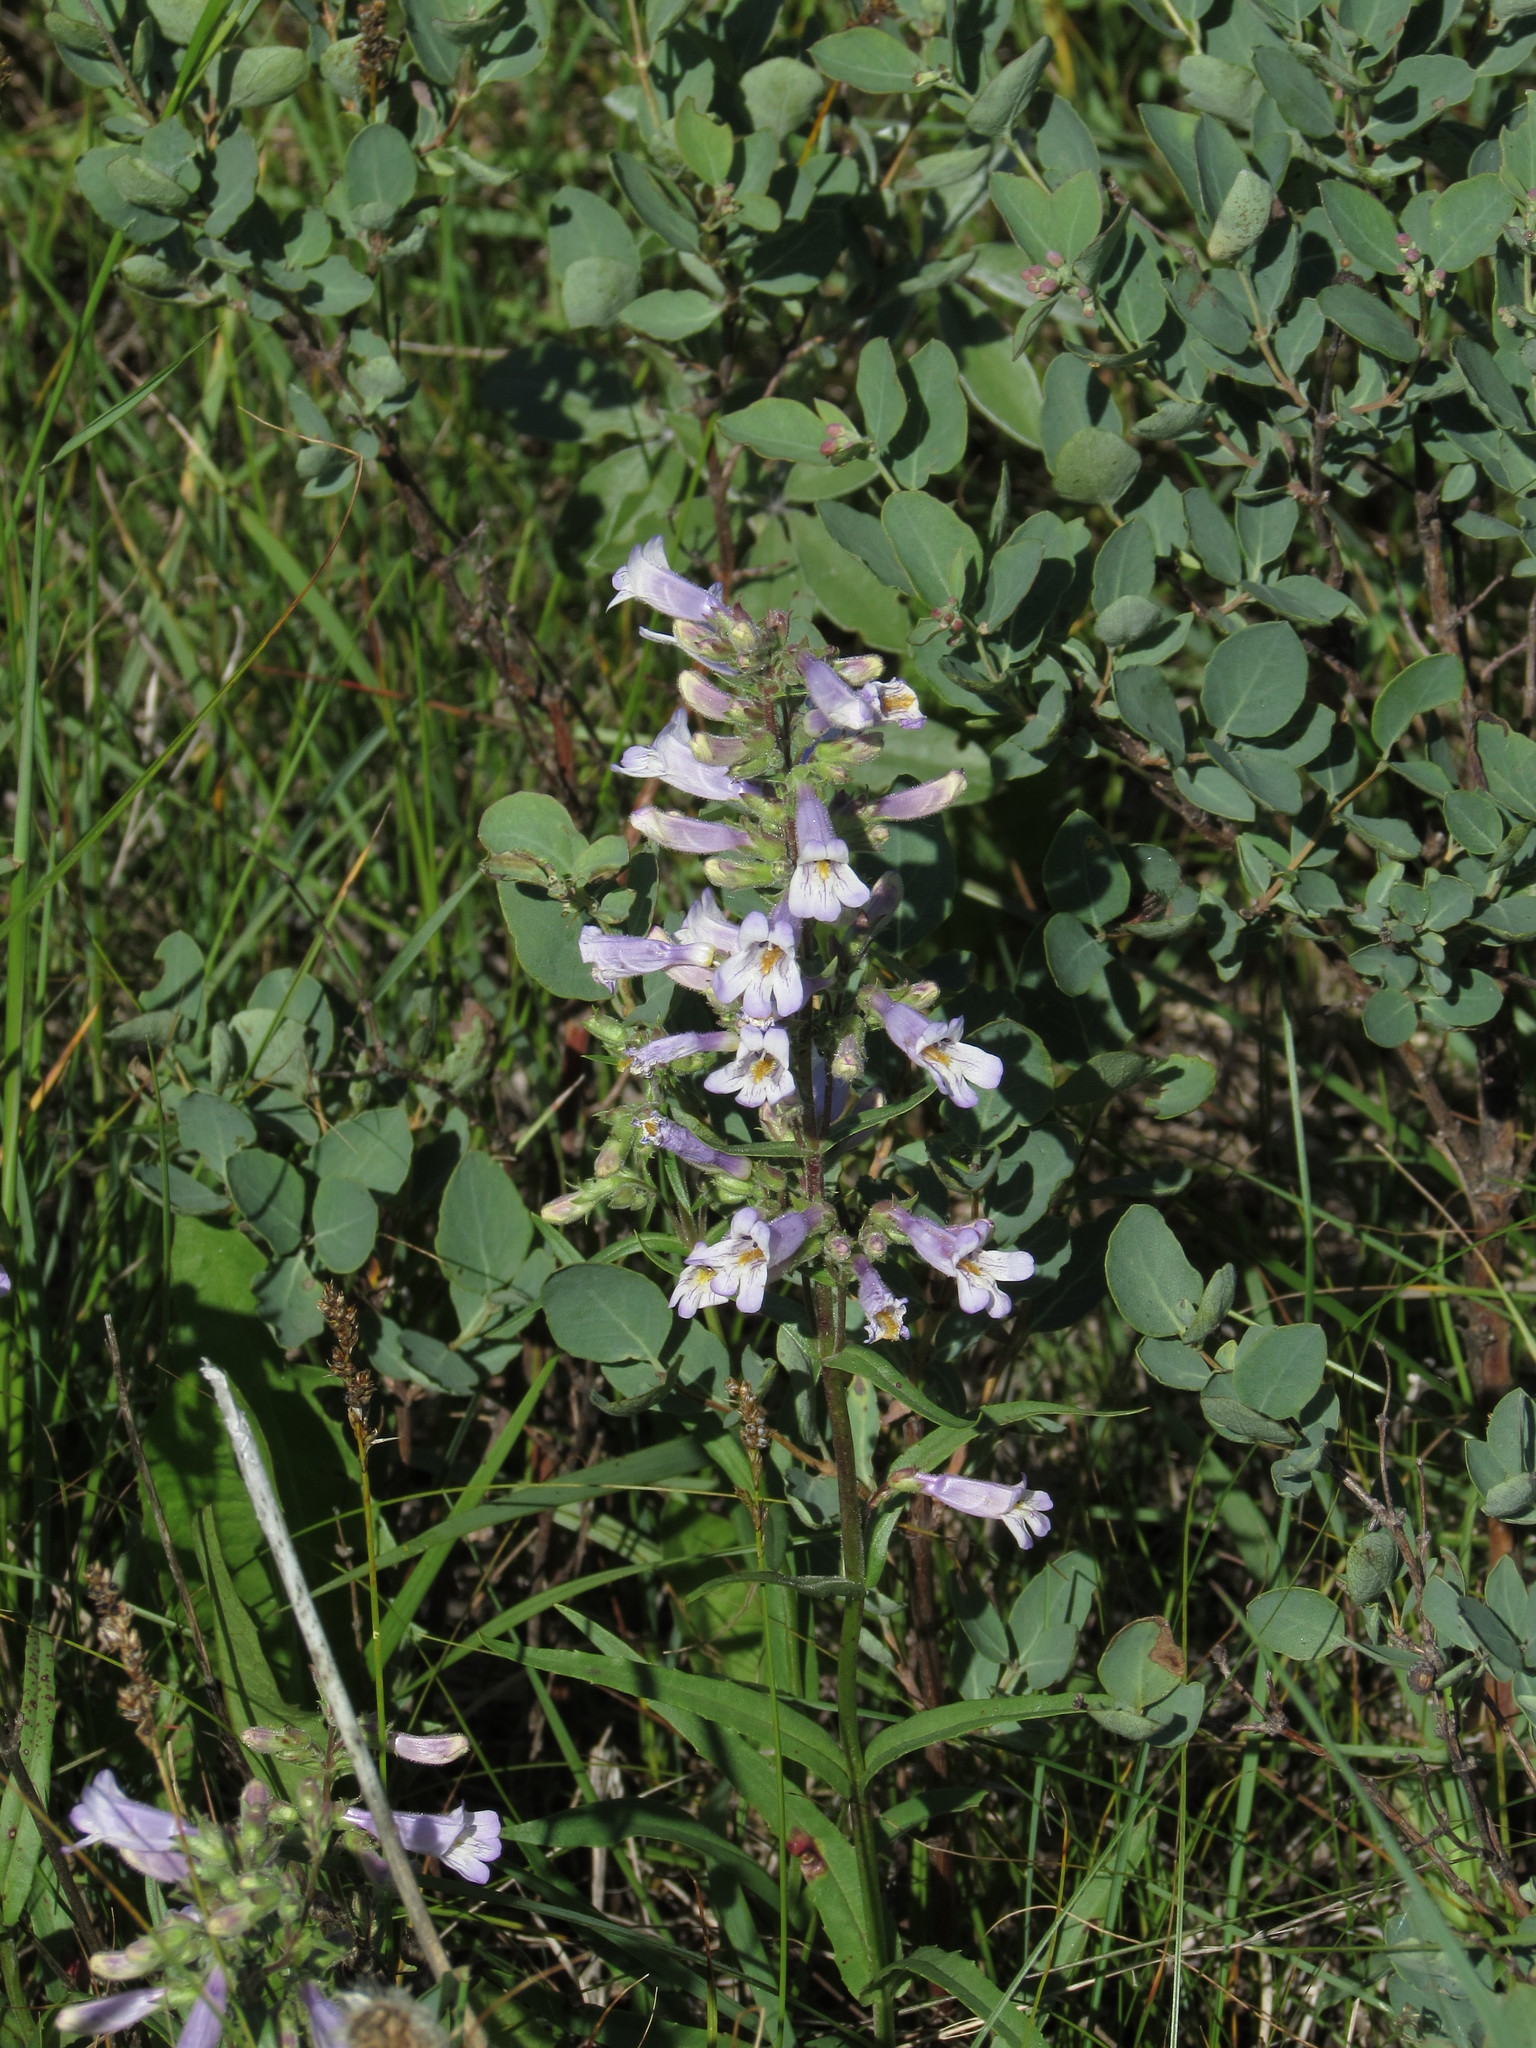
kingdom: Plantae
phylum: Tracheophyta
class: Magnoliopsida
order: Lamiales
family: Plantaginaceae
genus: Penstemon
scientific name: Penstemon gracilis
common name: Slender beardtongue
